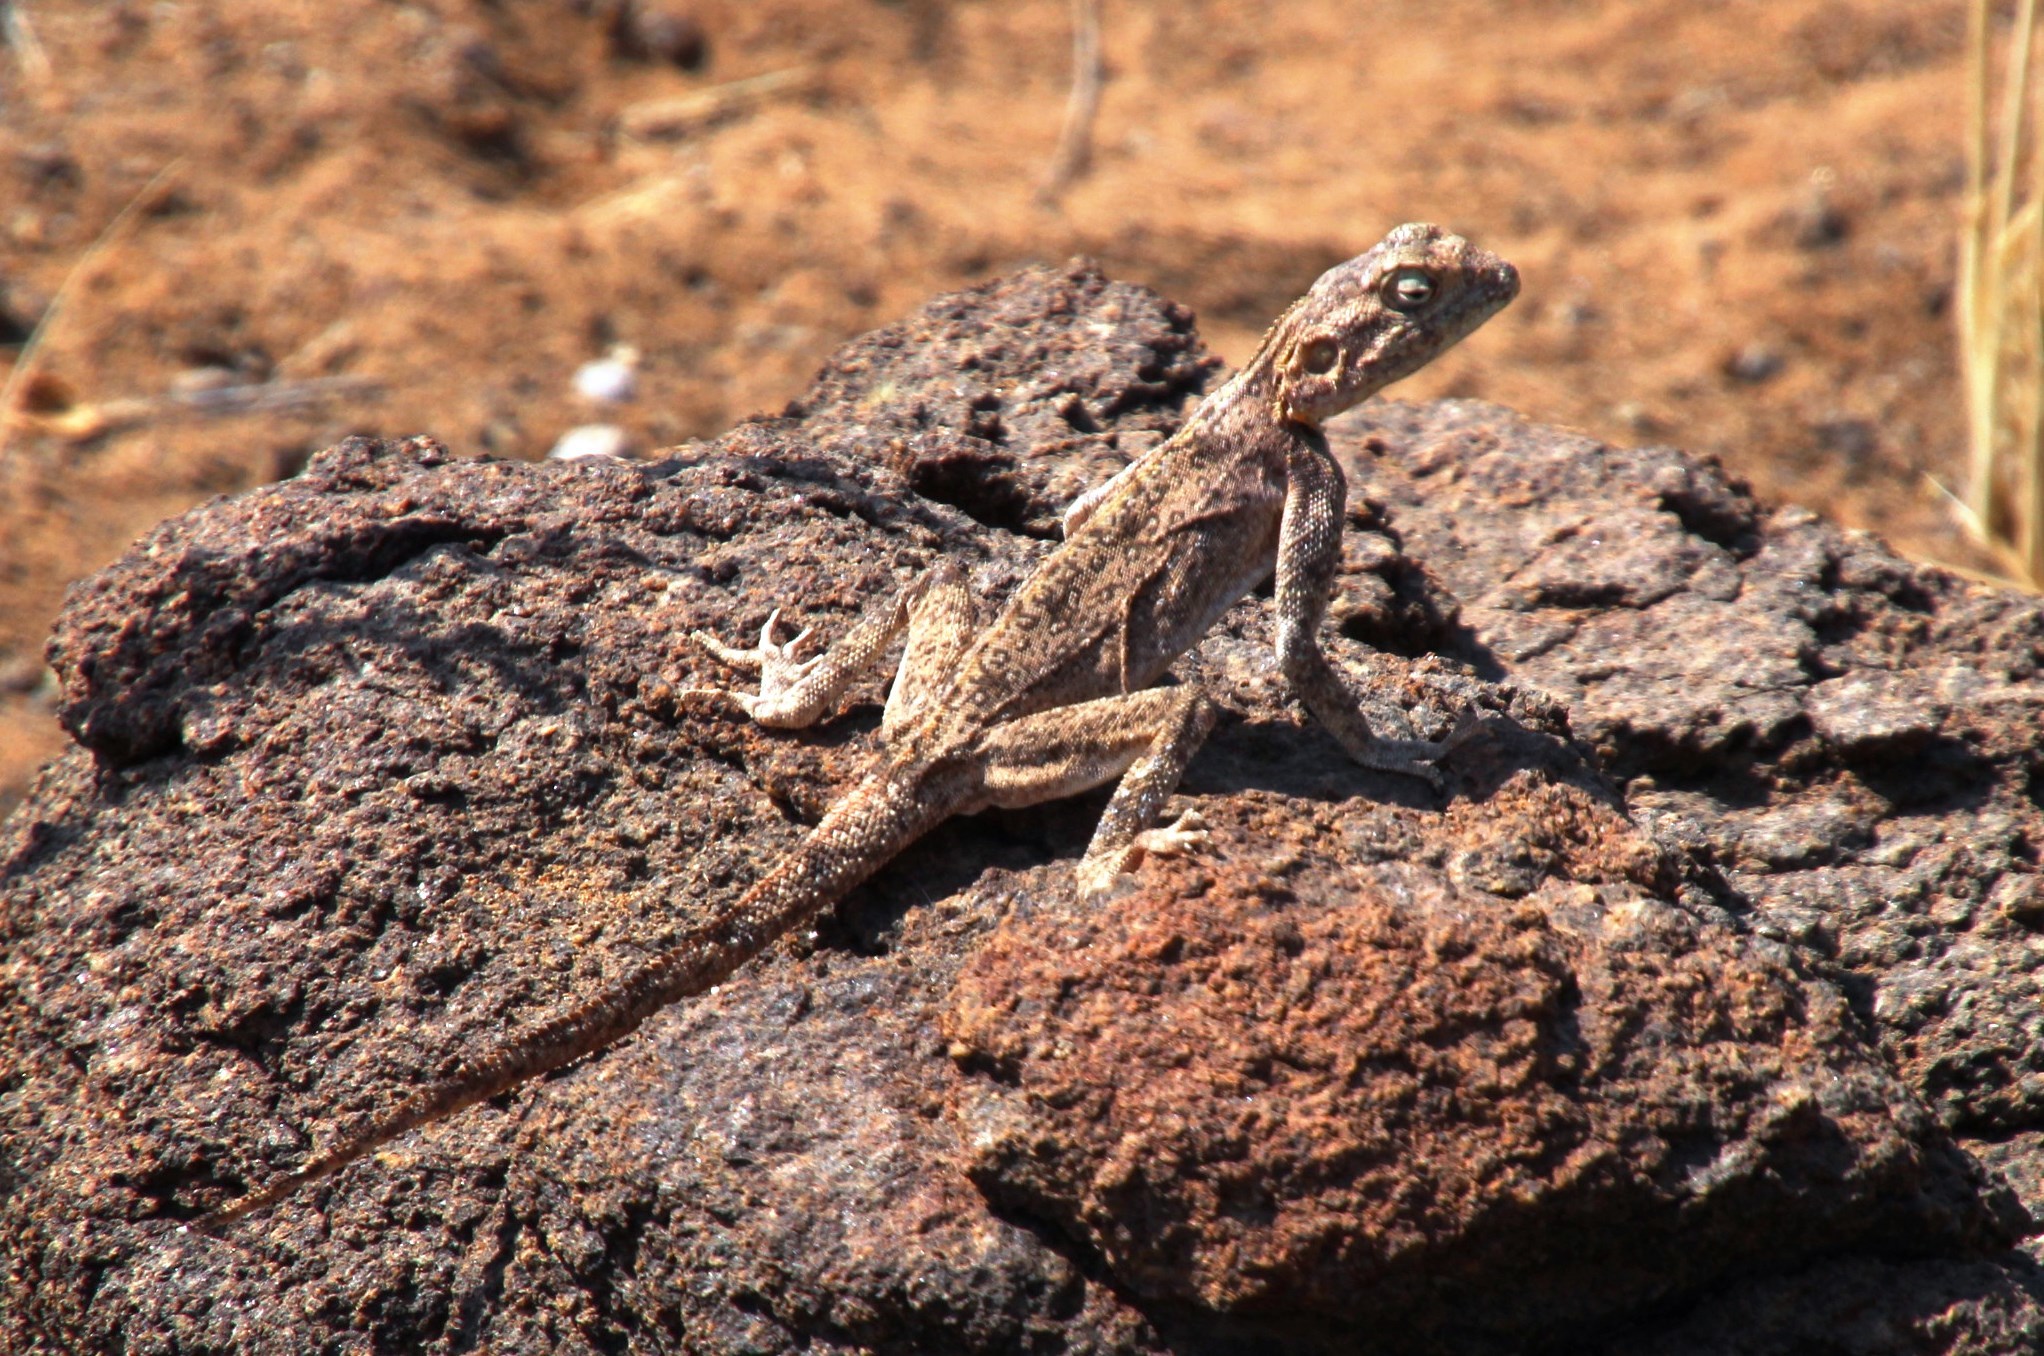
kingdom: Animalia
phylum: Chordata
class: Squamata
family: Agamidae
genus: Agama
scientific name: Agama atra
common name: Southern african rock agama
